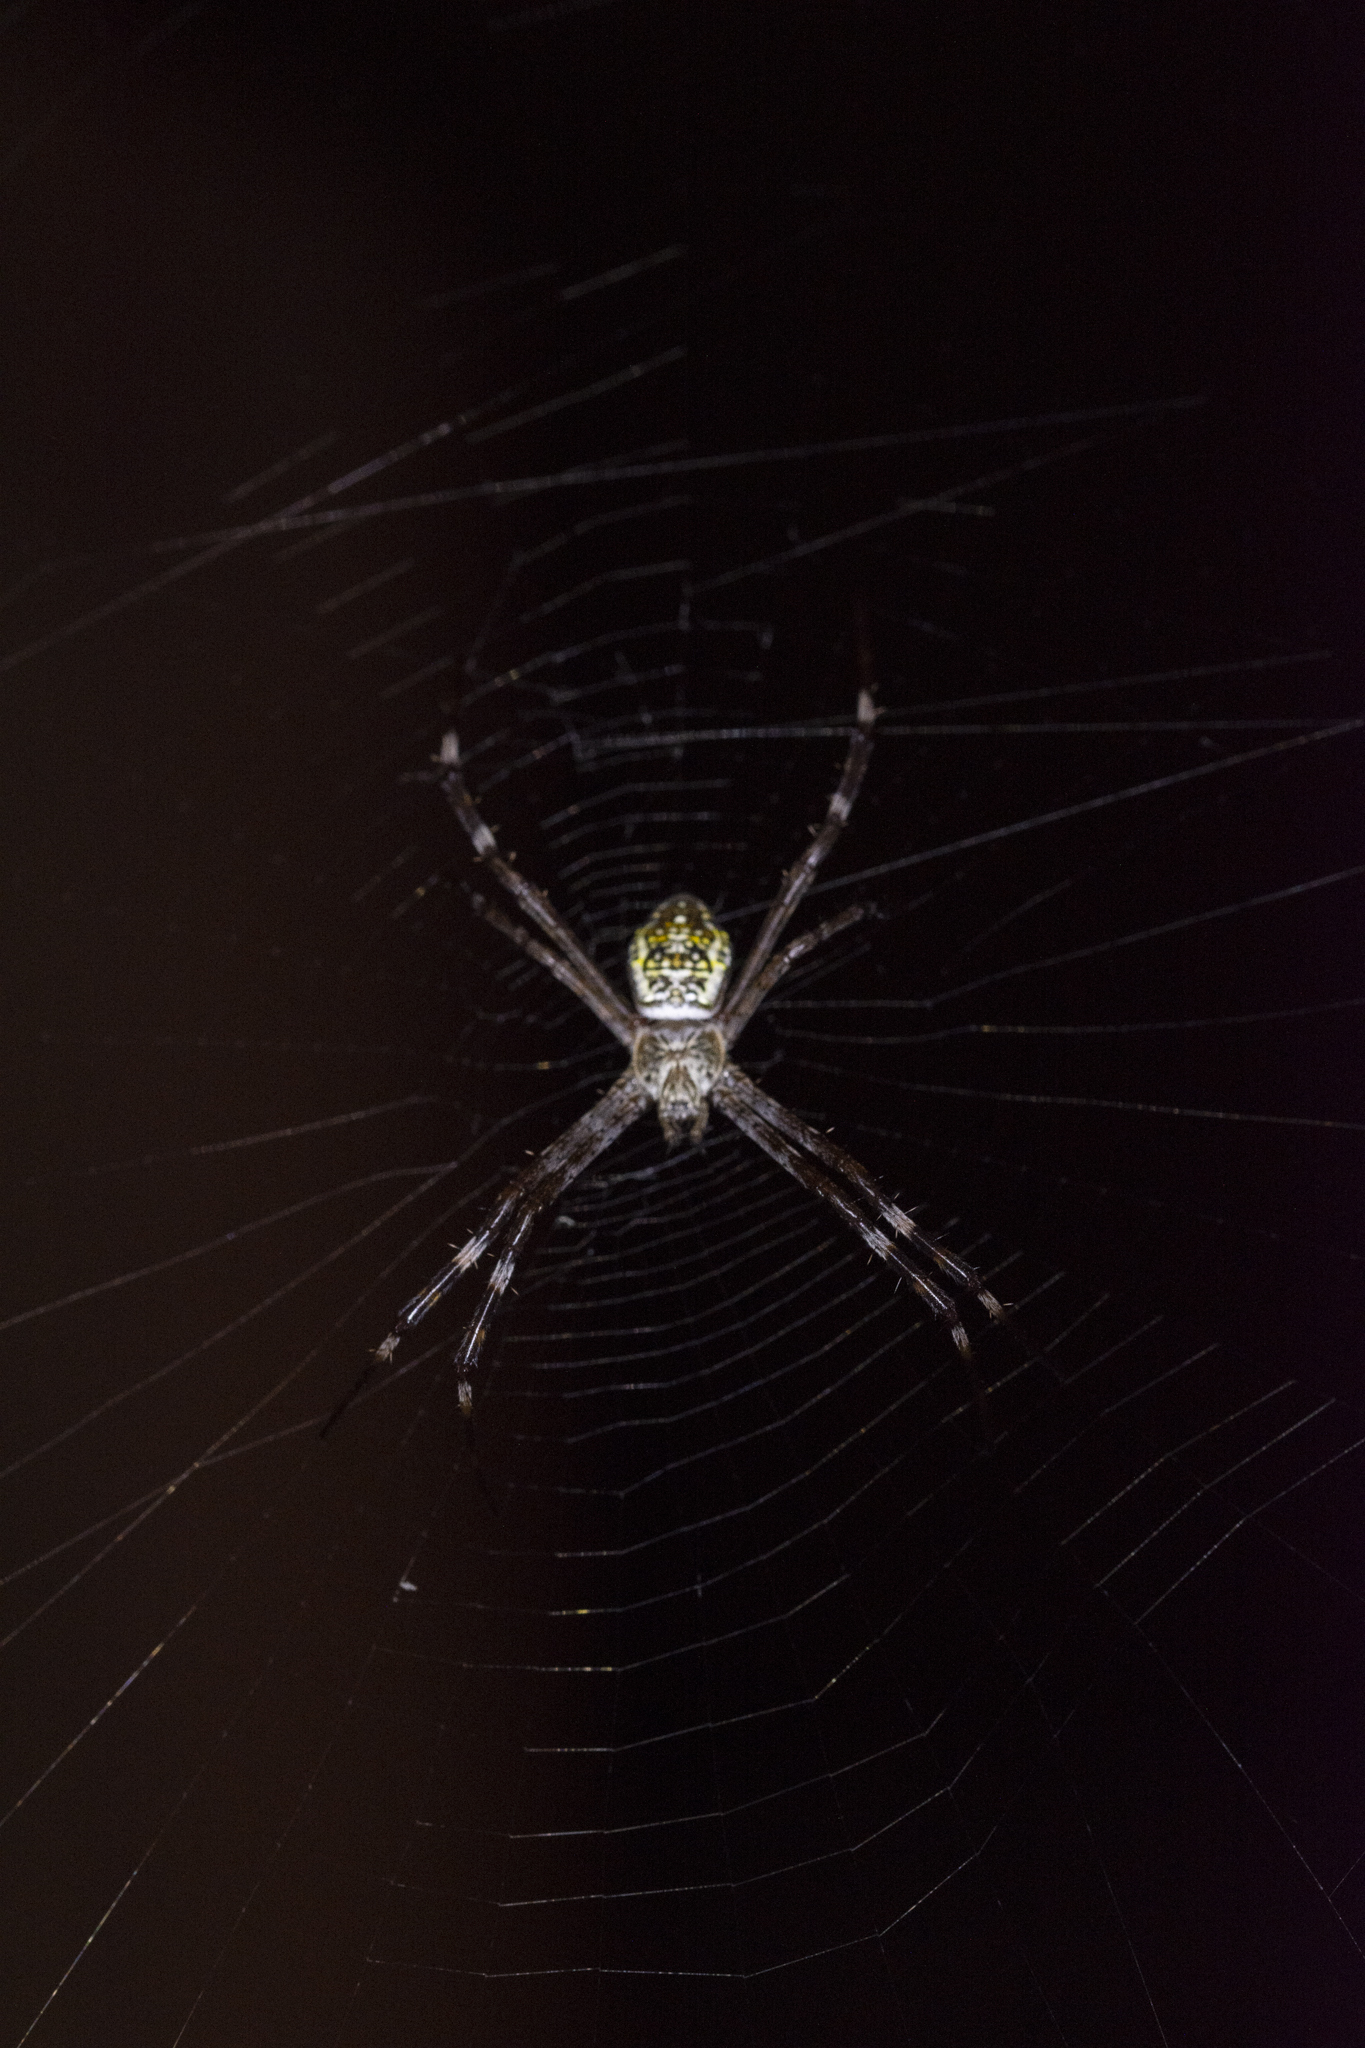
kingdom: Animalia
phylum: Arthropoda
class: Arachnida
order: Araneae
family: Araneidae
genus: Argiope
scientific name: Argiope appensa
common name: Garden spider
